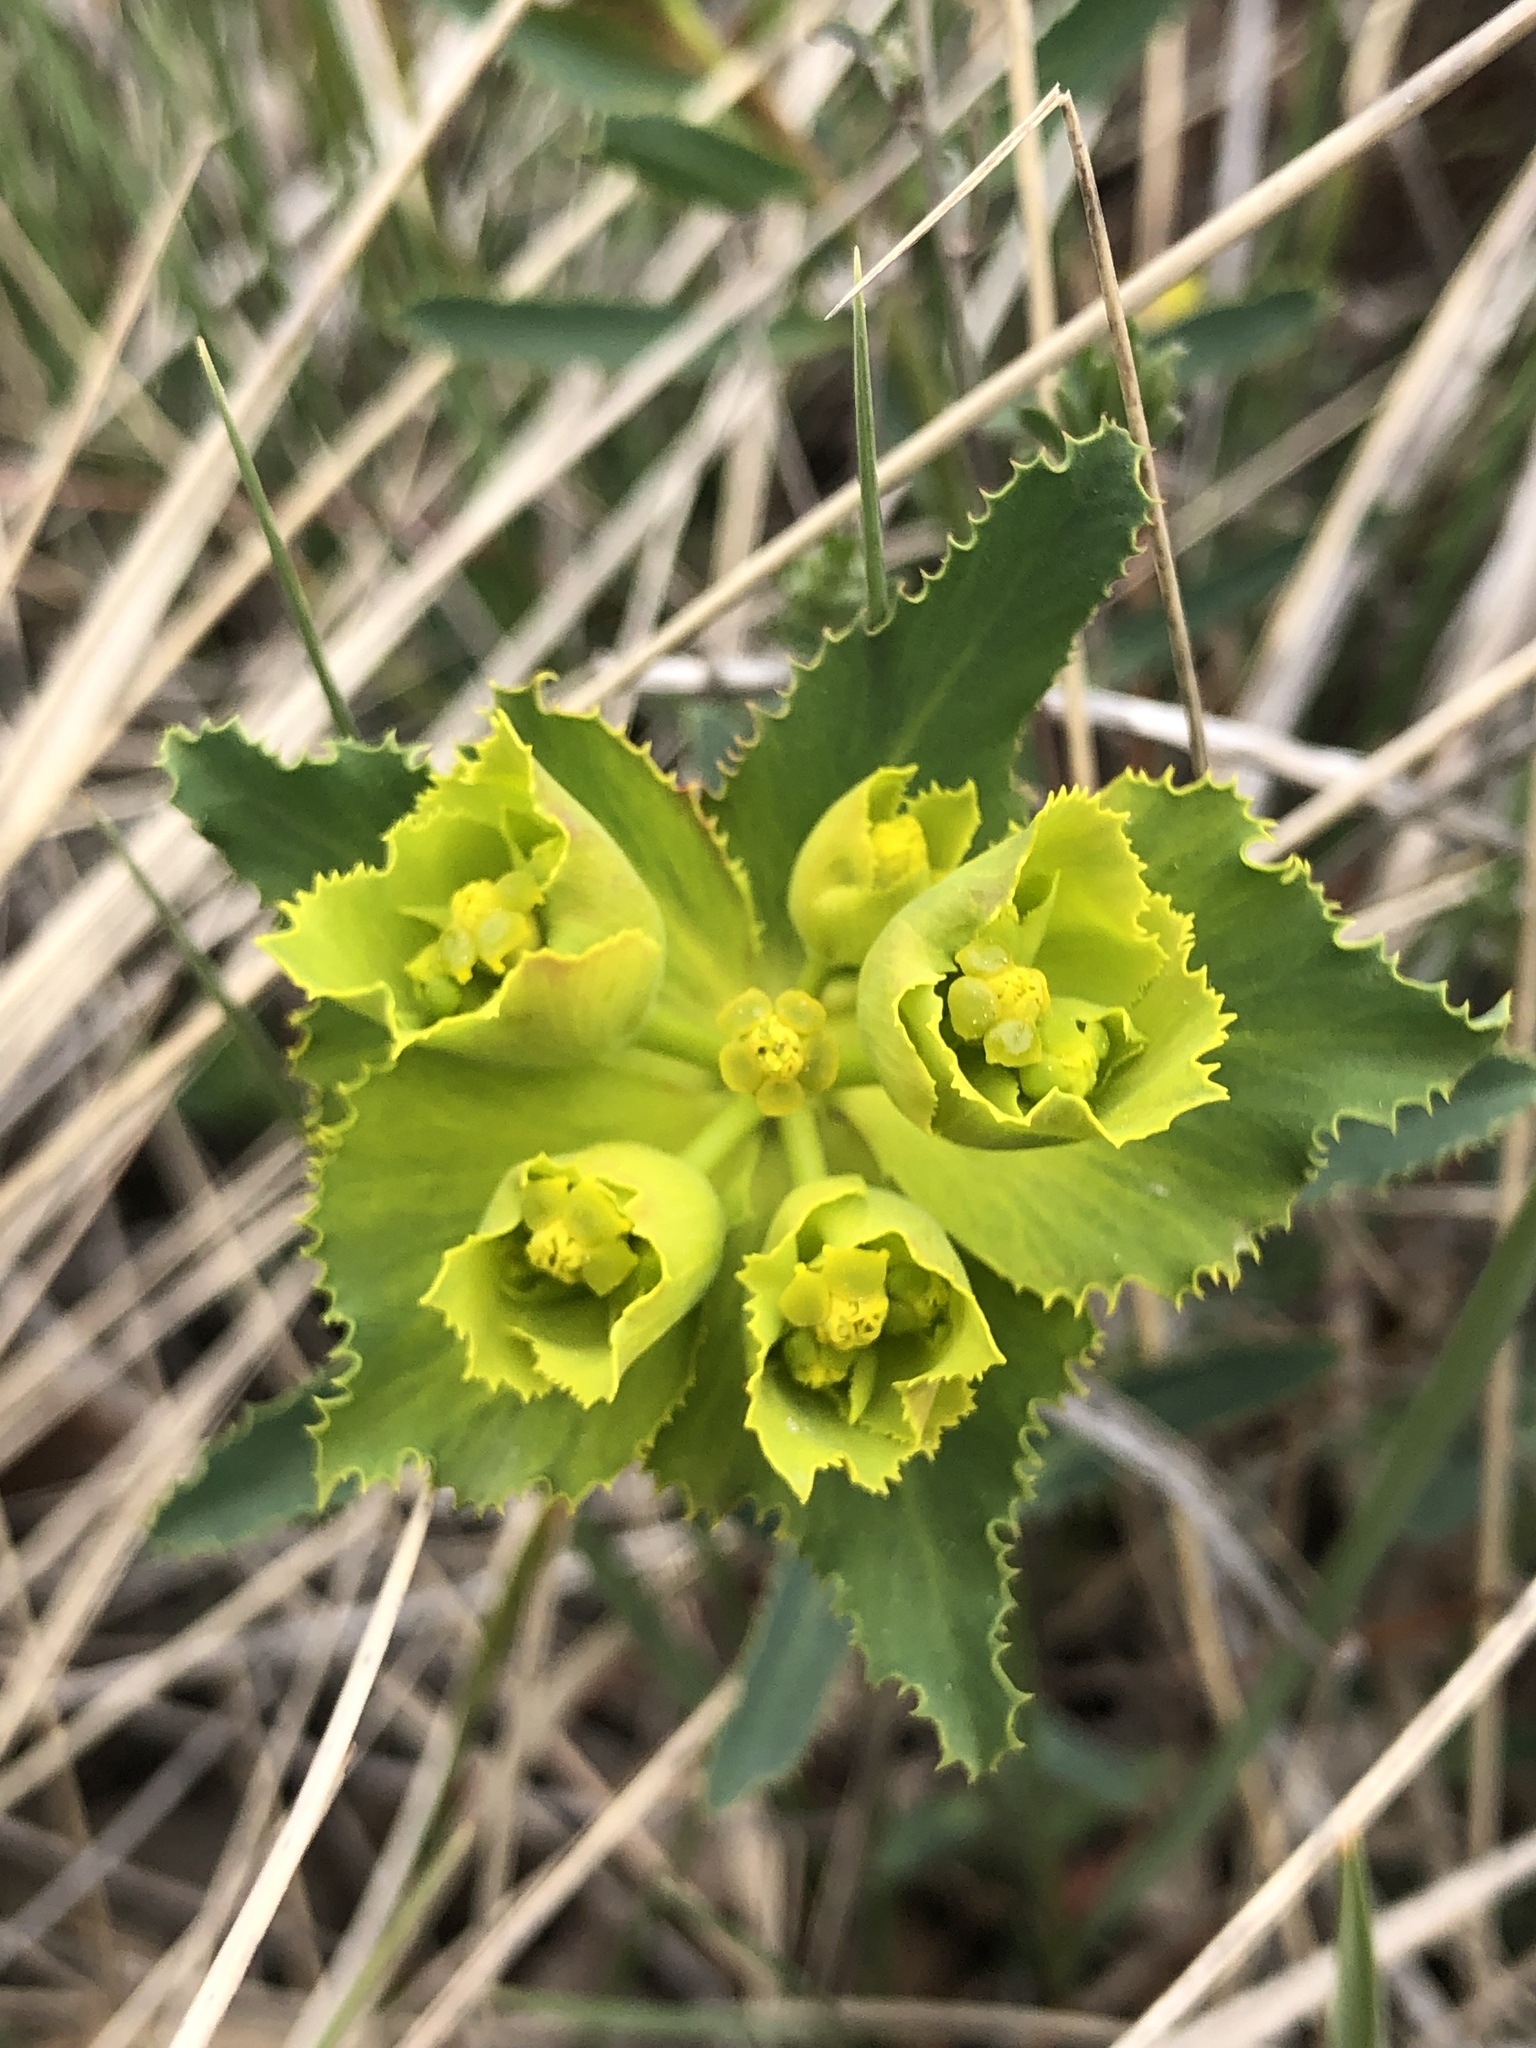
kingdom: Plantae
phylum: Tracheophyta
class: Magnoliopsida
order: Malpighiales
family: Euphorbiaceae
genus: Euphorbia
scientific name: Euphorbia serrata
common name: Serrate spurge
